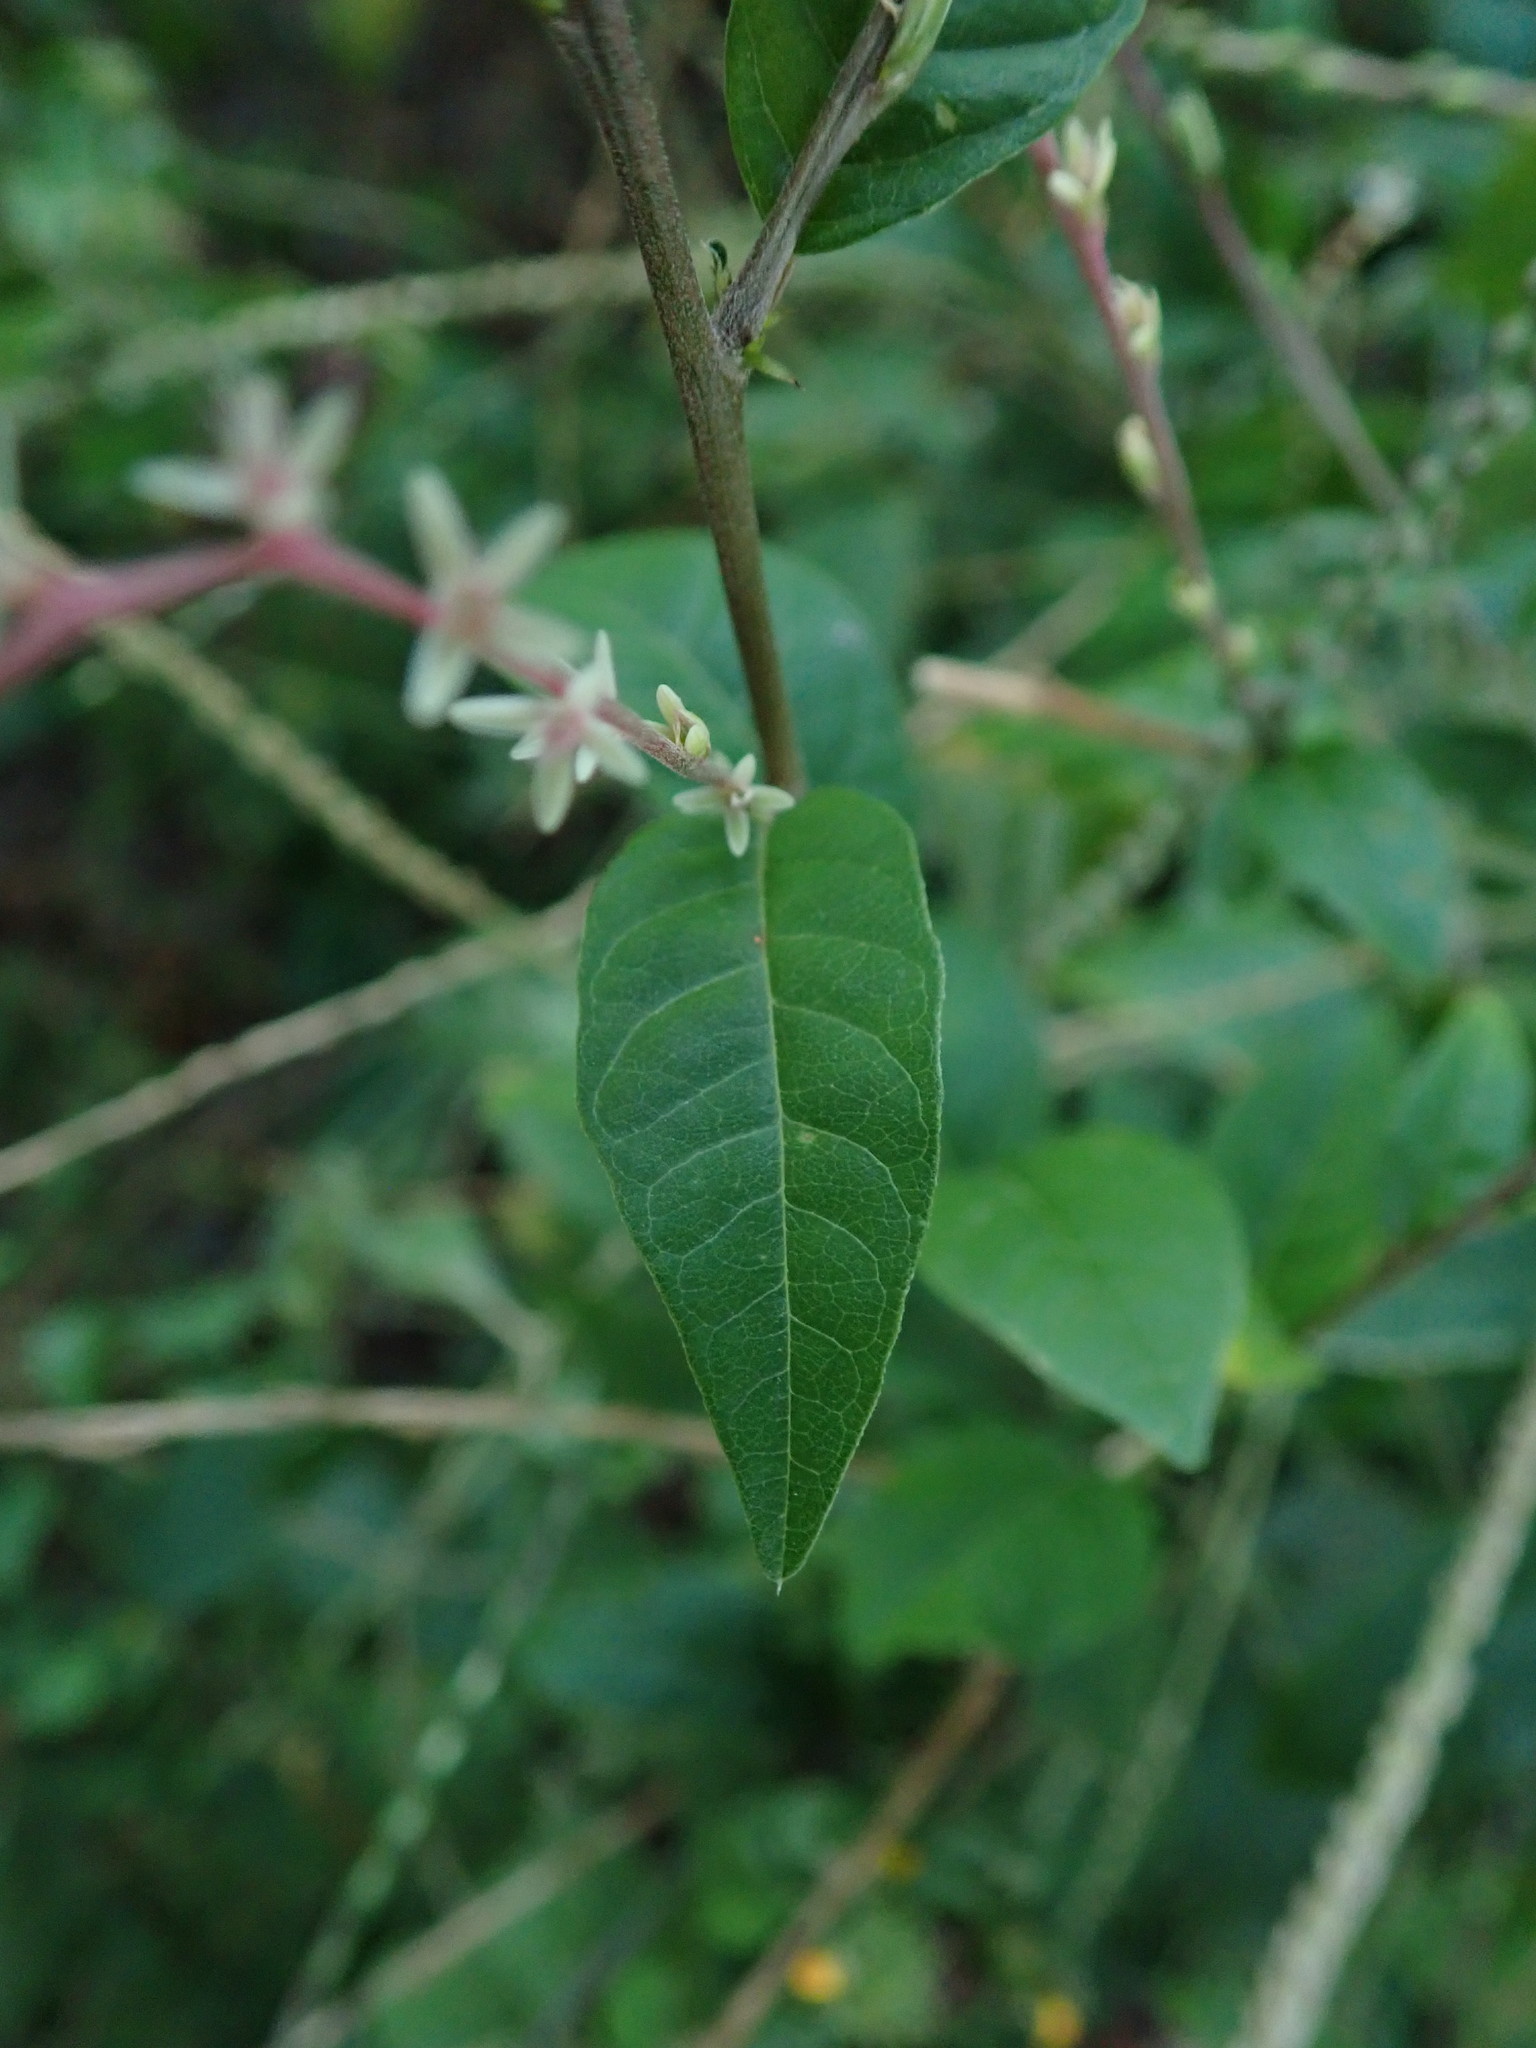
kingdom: Plantae
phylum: Tracheophyta
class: Magnoliopsida
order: Caryophyllales
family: Phytolaccaceae
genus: Petiveria
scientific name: Petiveria alliacea
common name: Garlicweed
